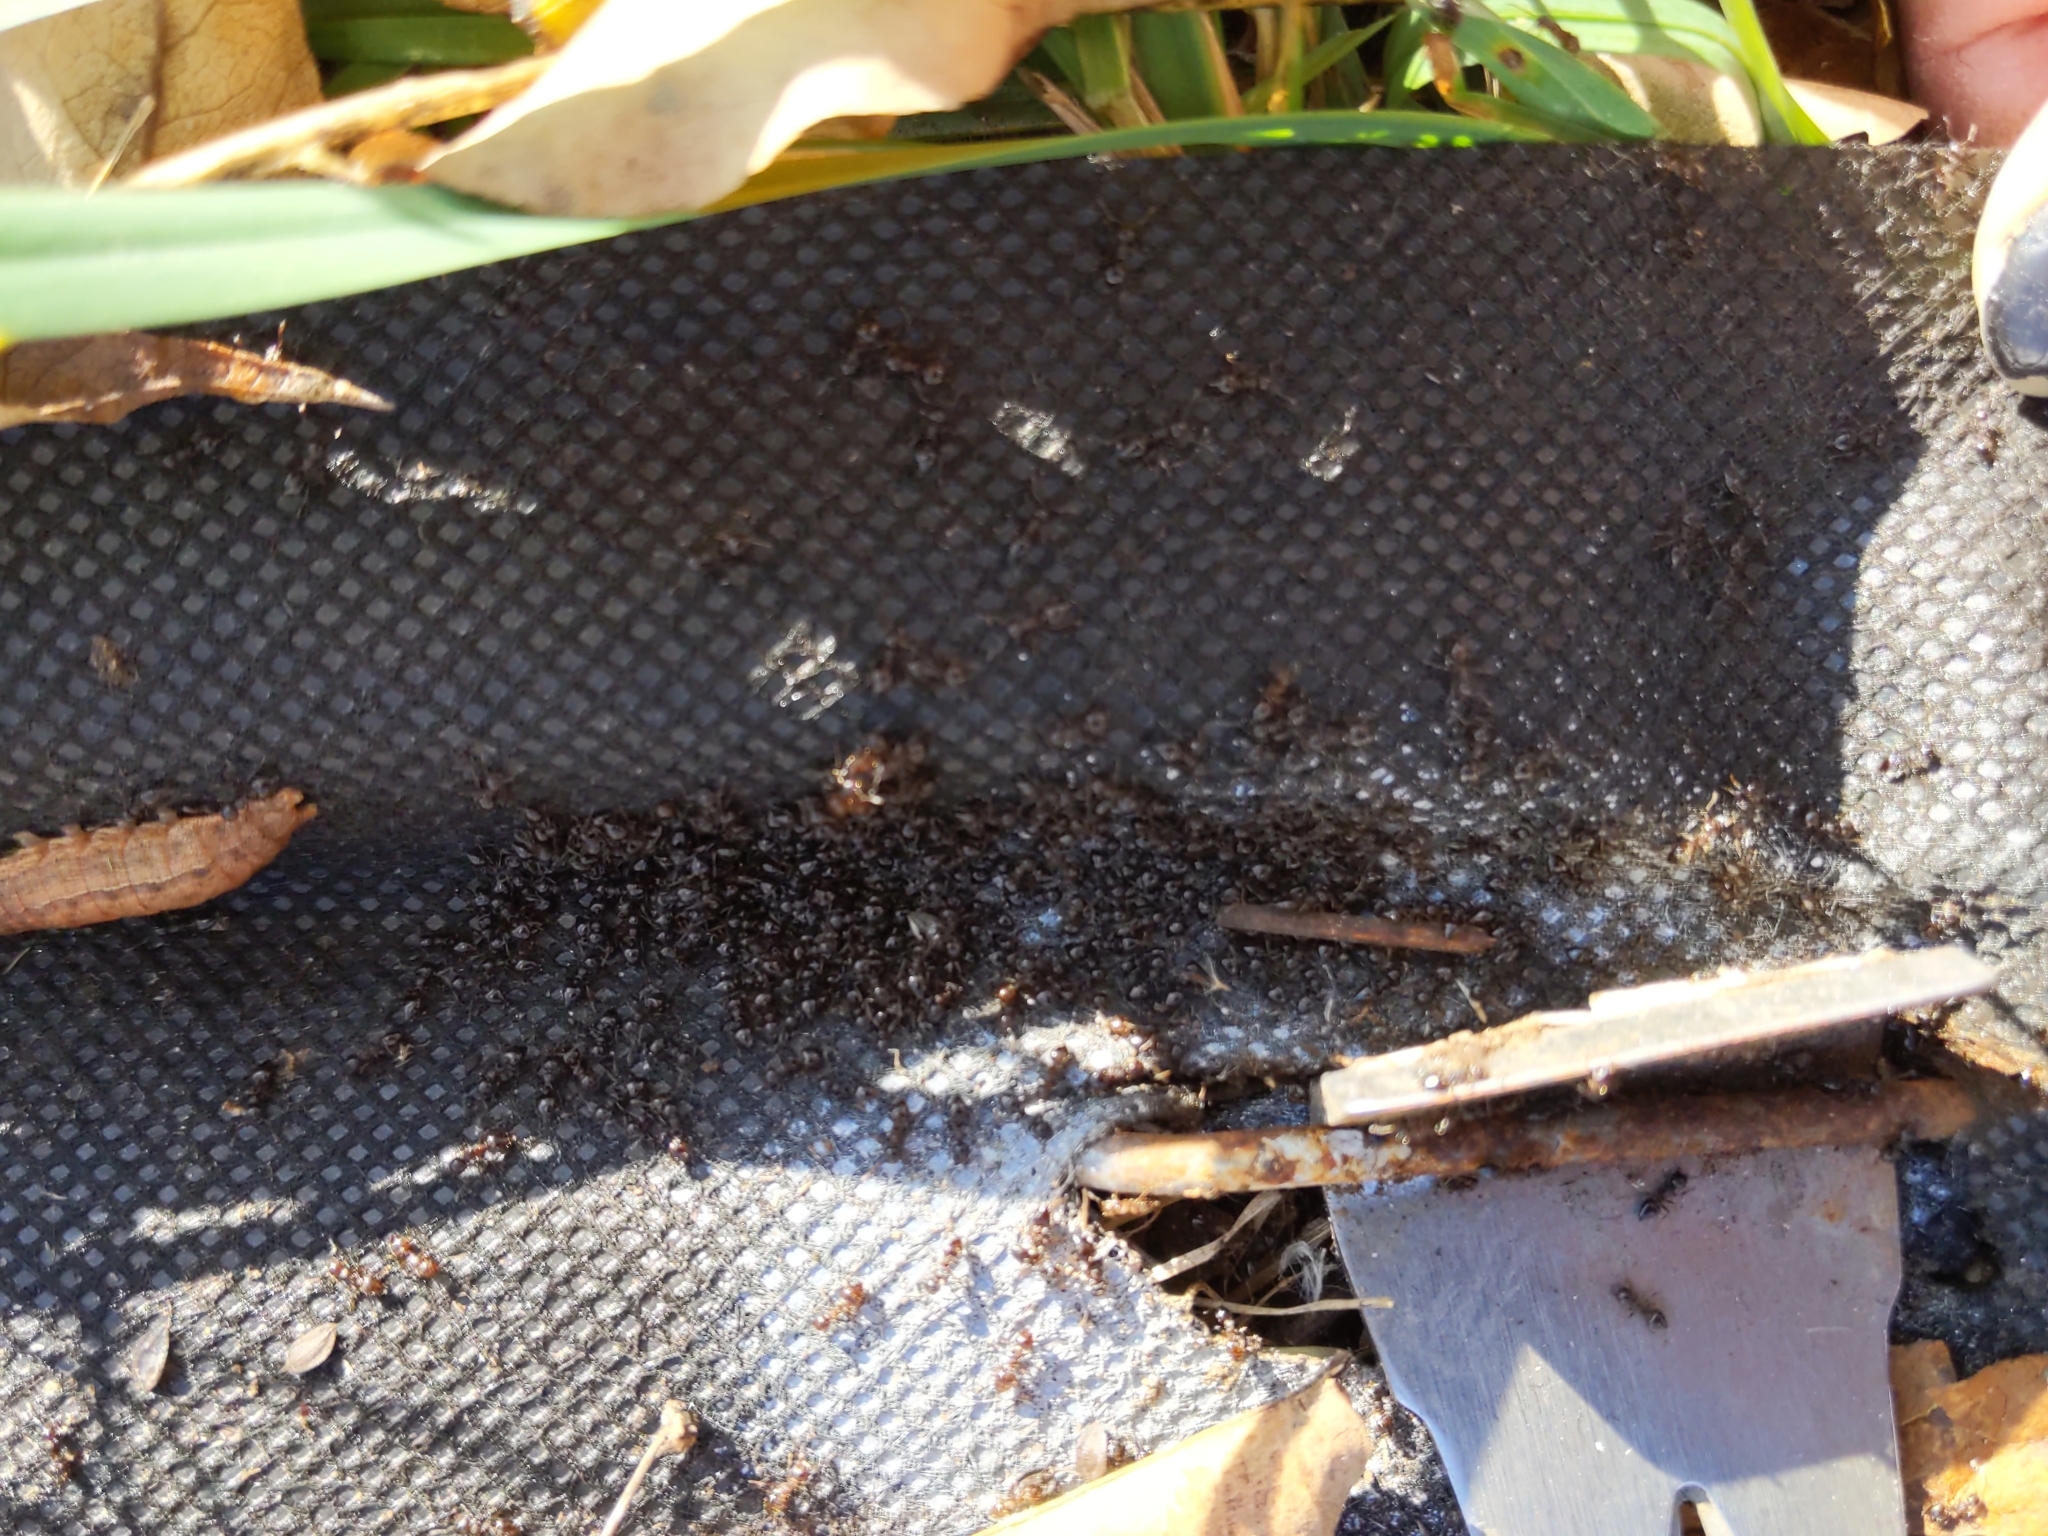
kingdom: Animalia
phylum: Arthropoda
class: Insecta
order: Hymenoptera
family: Formicidae
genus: Crematogaster
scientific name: Crematogaster
